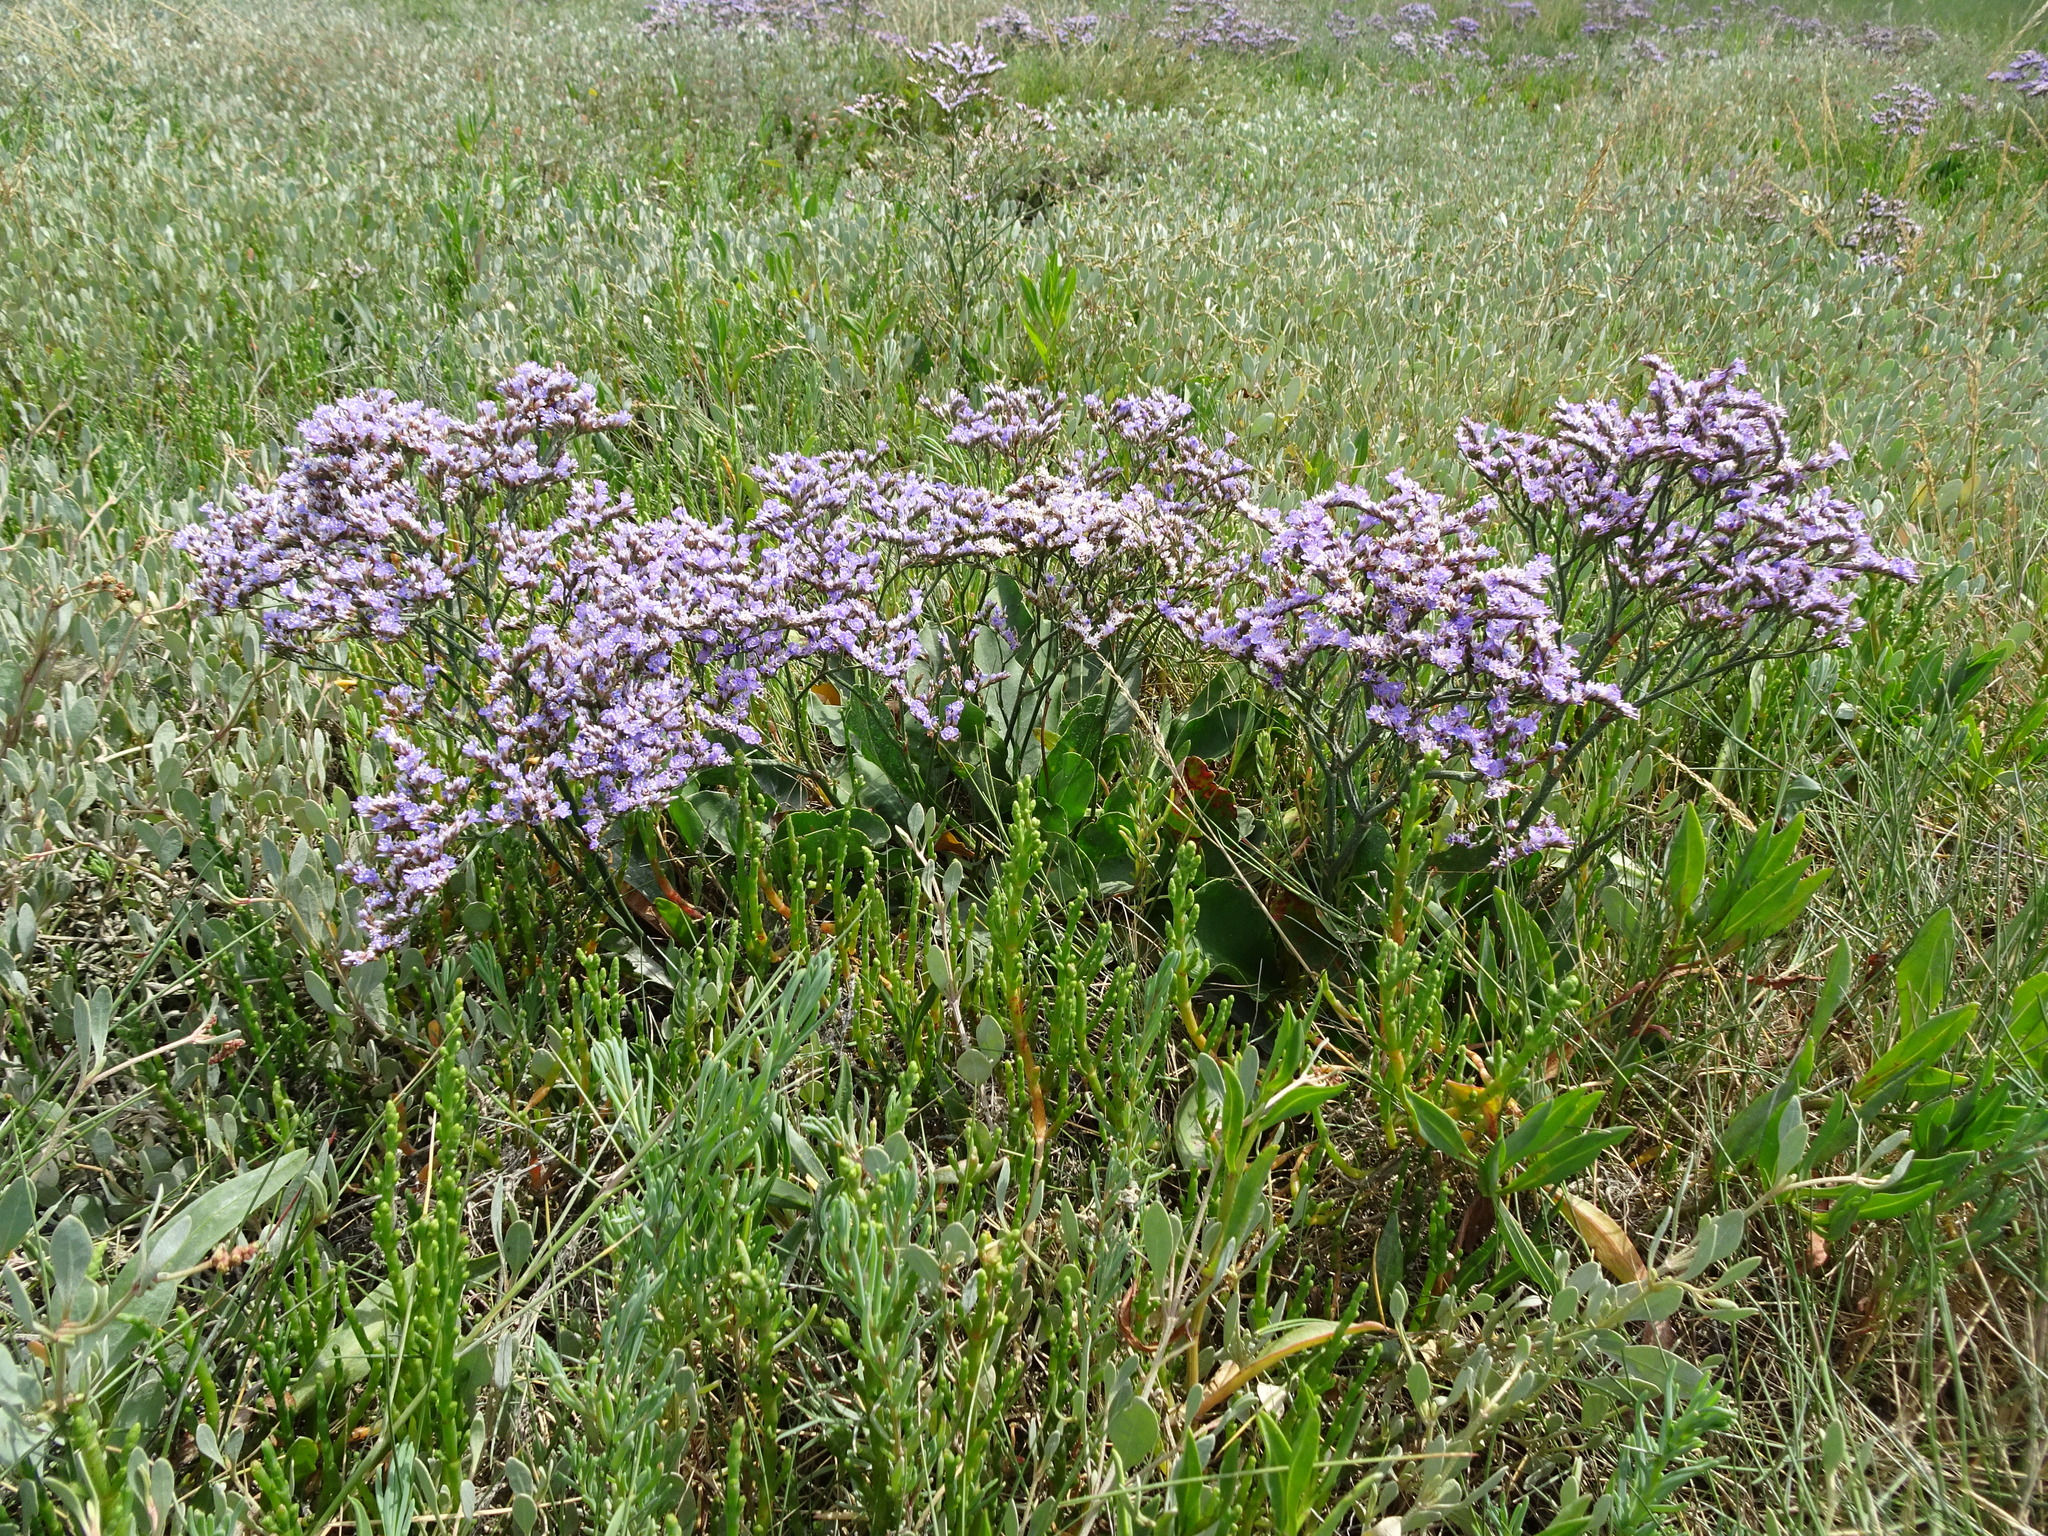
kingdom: Plantae
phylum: Tracheophyta
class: Magnoliopsida
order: Caryophyllales
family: Plumbaginaceae
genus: Limonium
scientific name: Limonium vulgare
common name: Common sea-lavender
